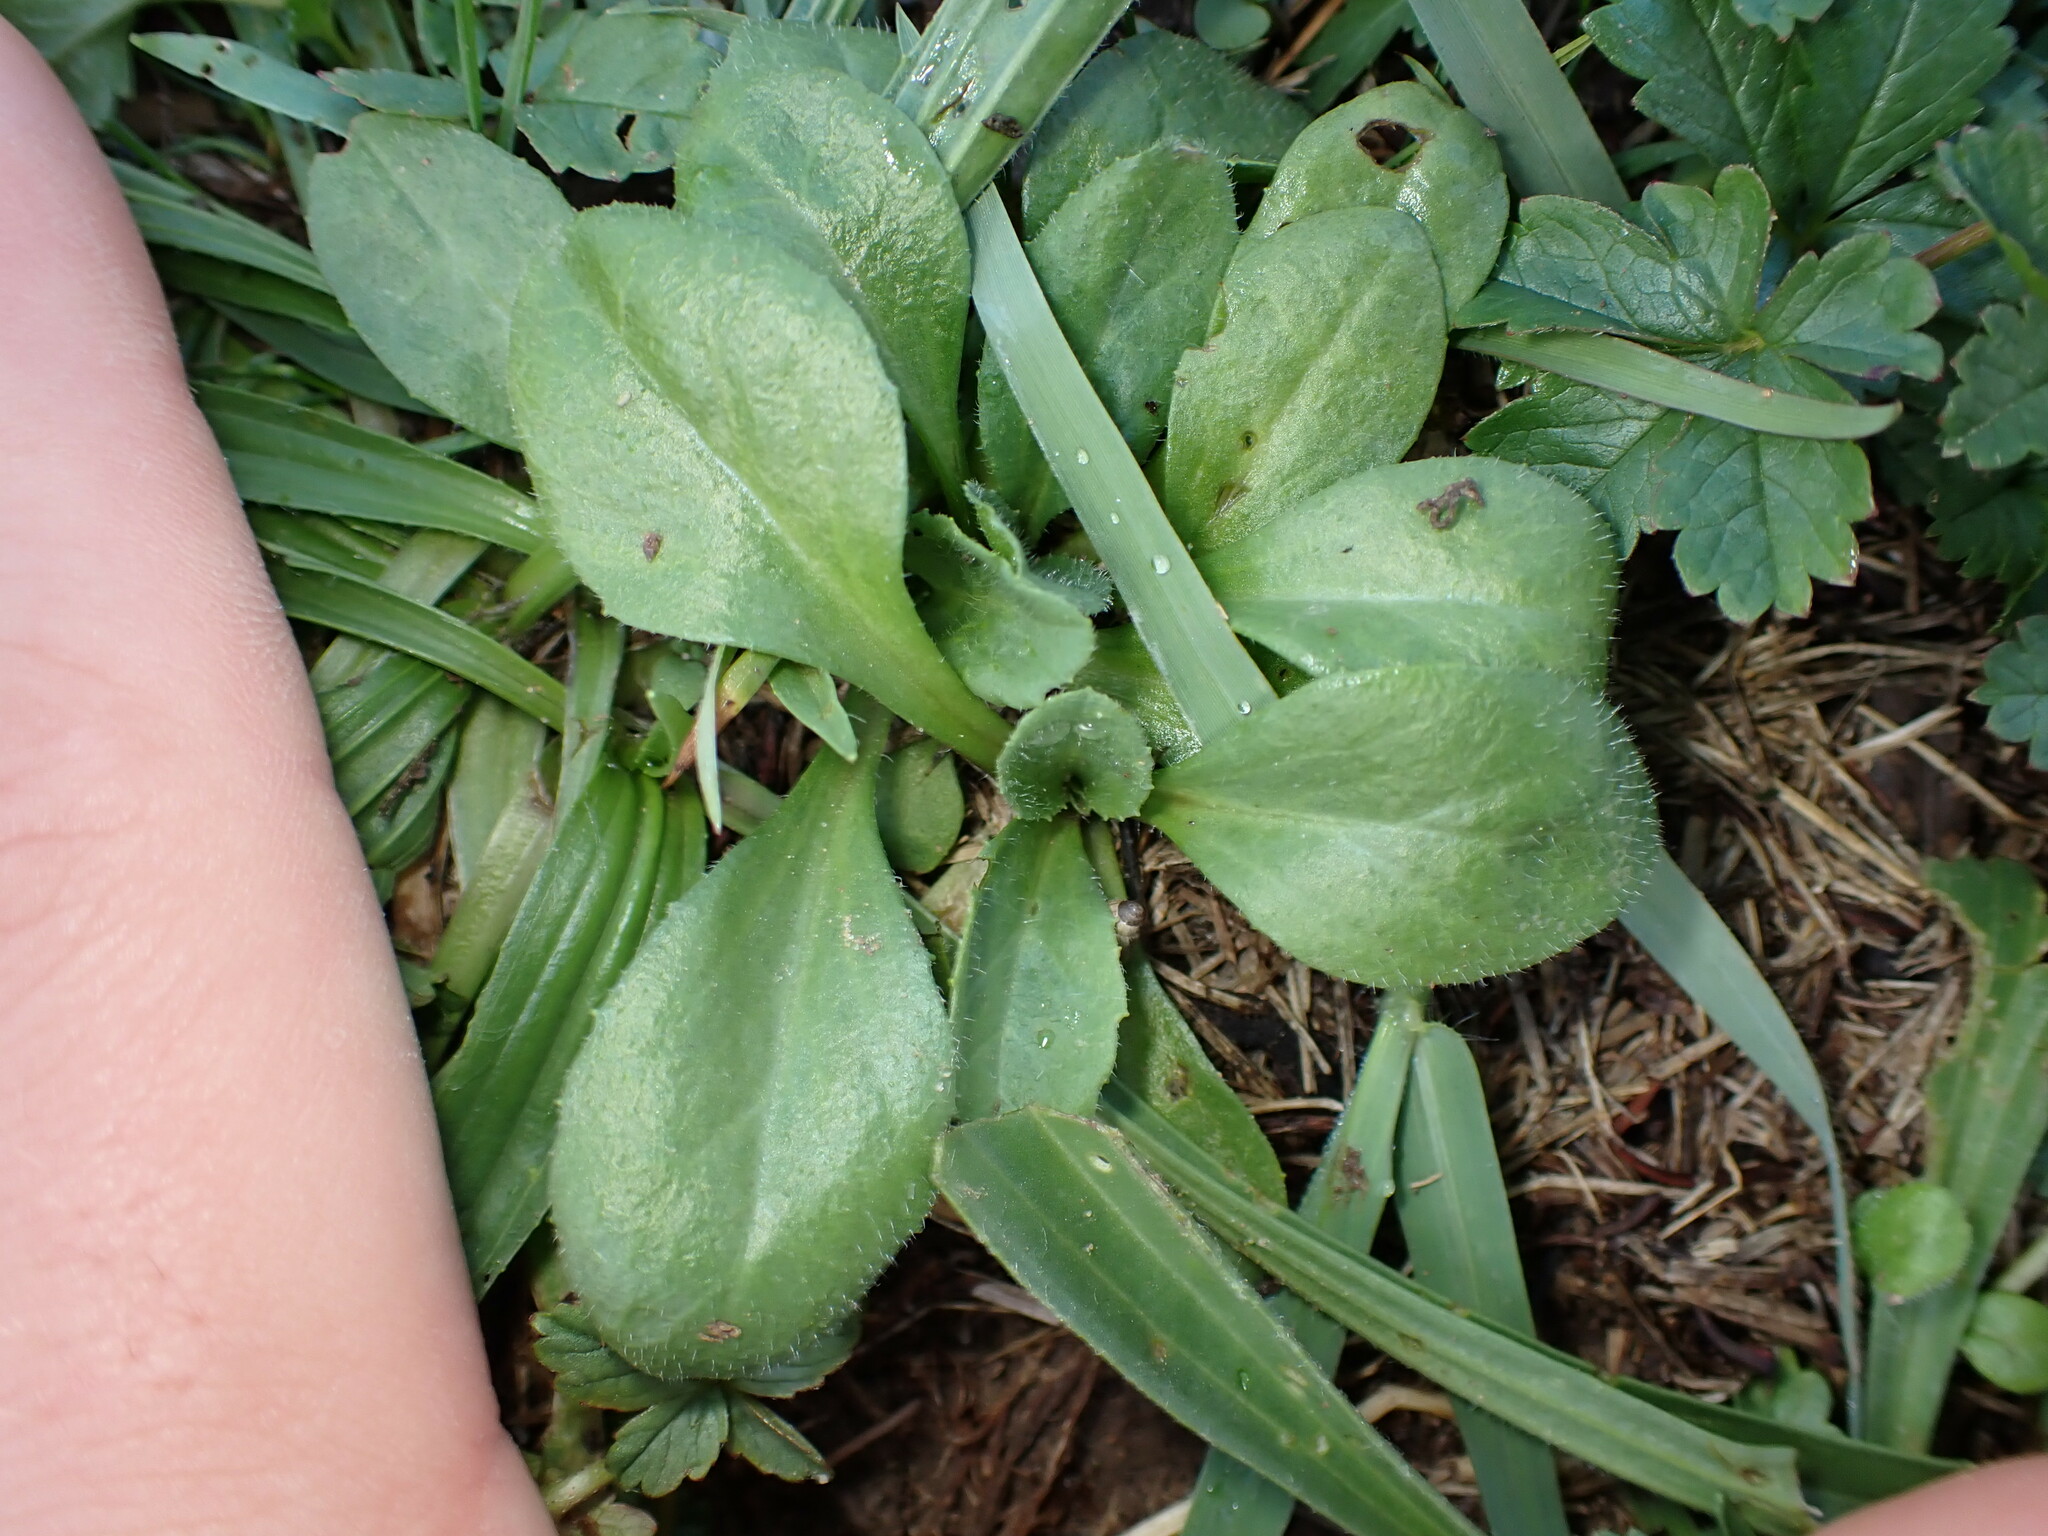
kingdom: Plantae
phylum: Tracheophyta
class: Magnoliopsida
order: Asterales
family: Asteraceae
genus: Bellis
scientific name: Bellis perennis
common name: Lawndaisy
